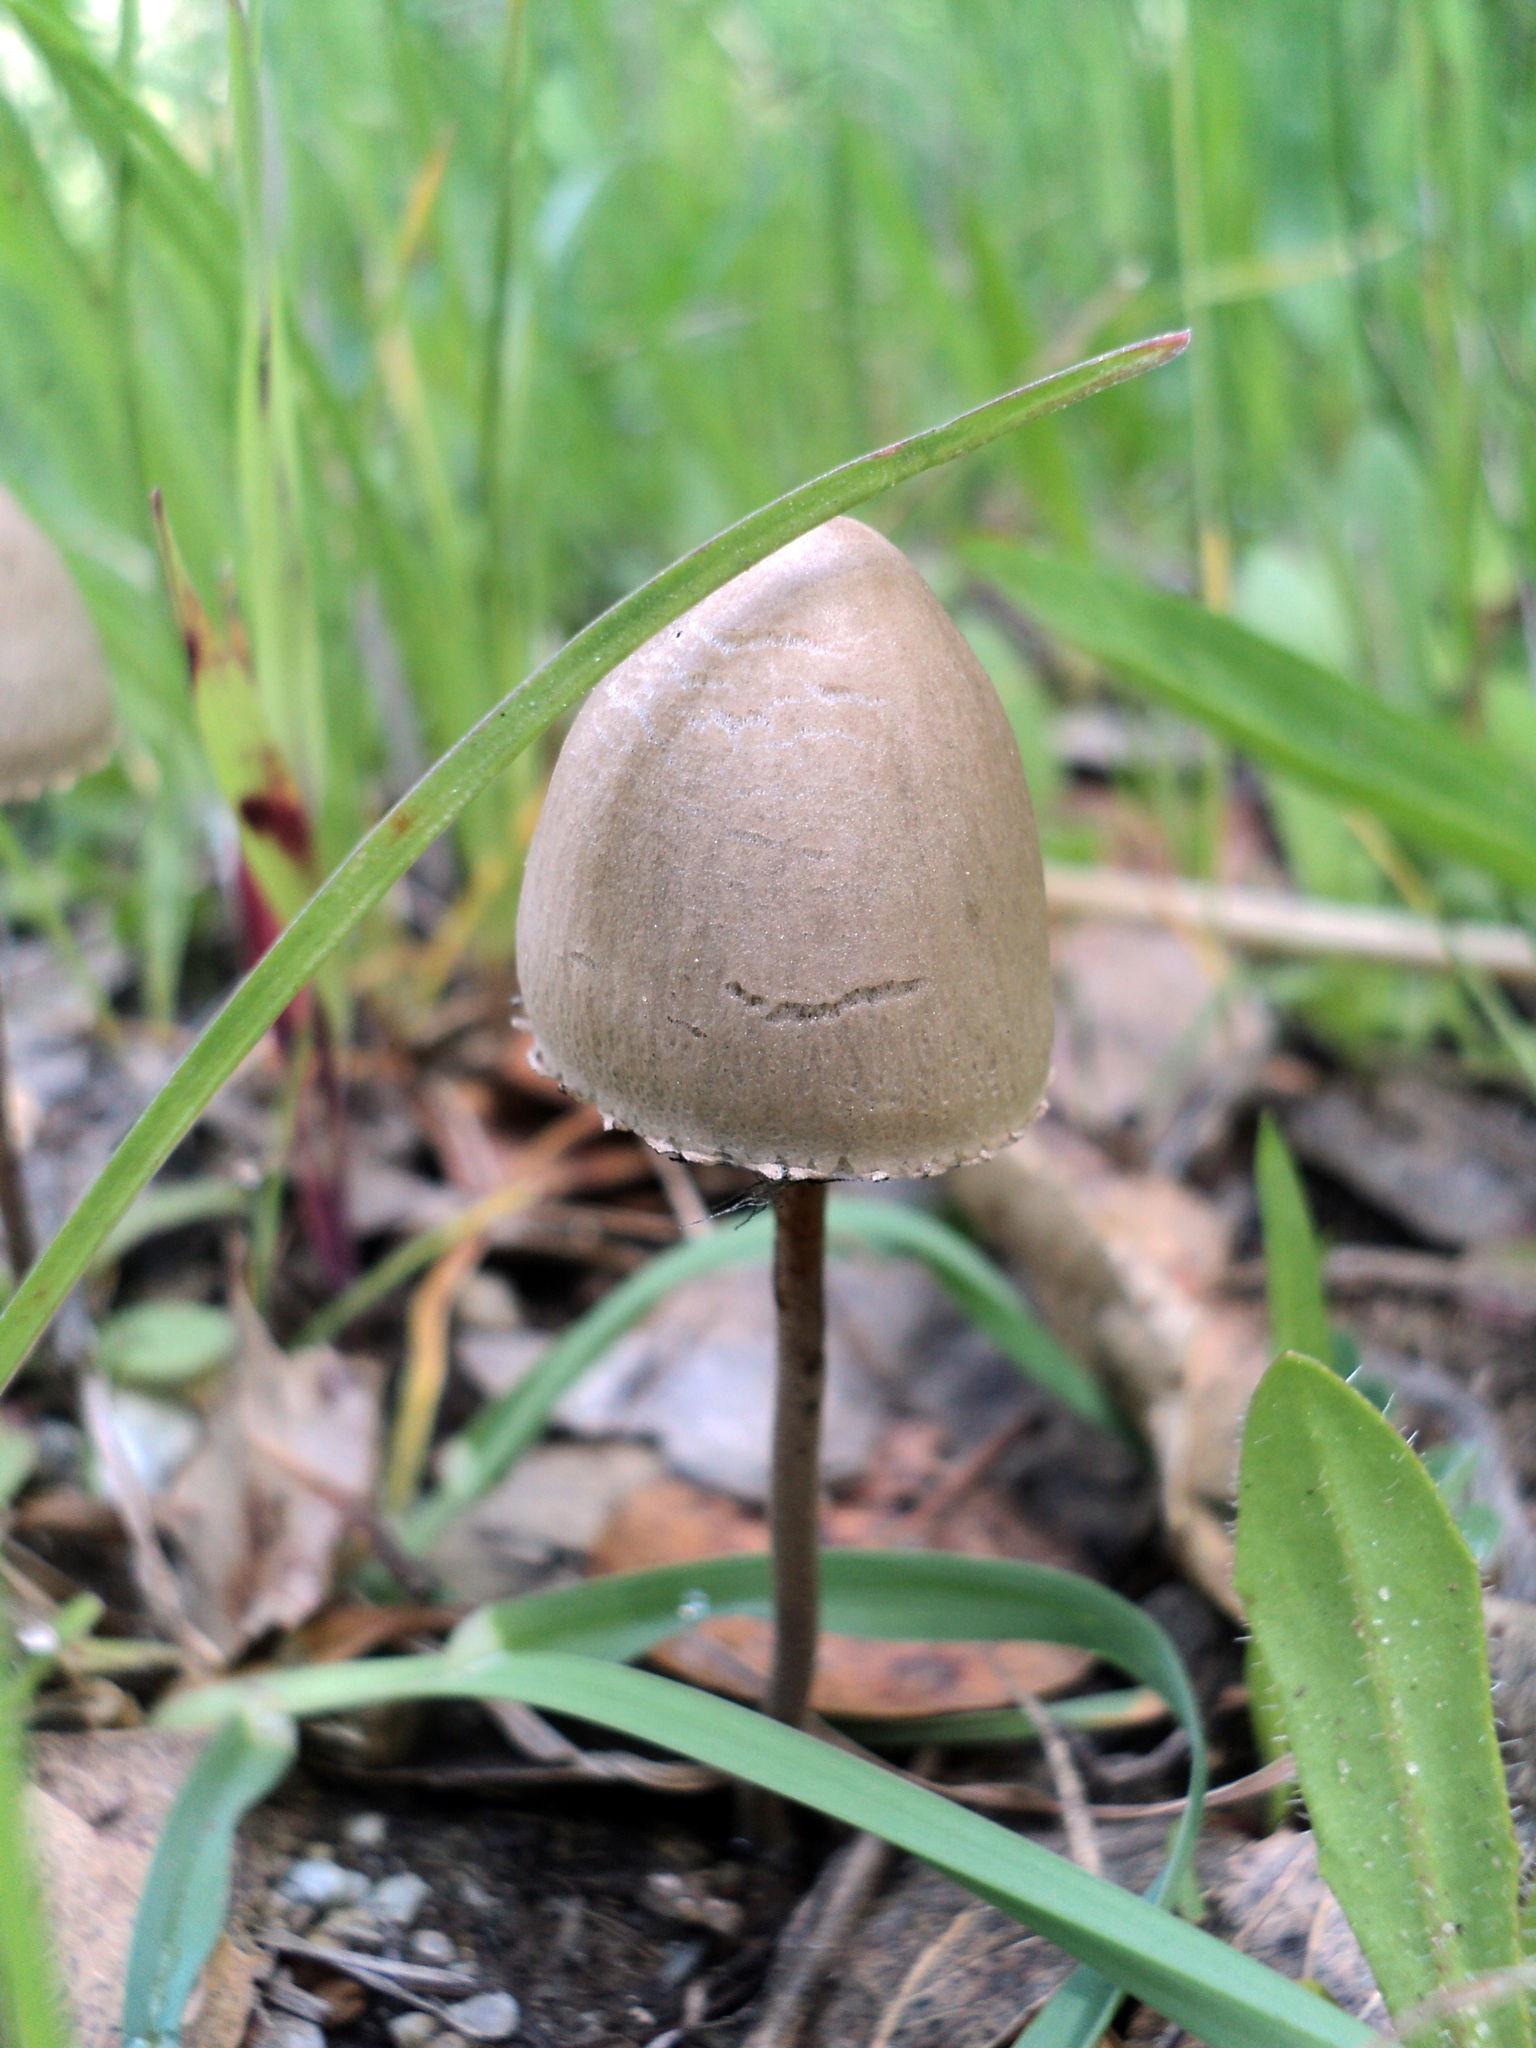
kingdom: Fungi
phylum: Basidiomycota
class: Agaricomycetes
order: Agaricales
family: Bolbitiaceae
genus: Panaeolus
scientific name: Panaeolus papilionaceus
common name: Petticoat mottlegill
